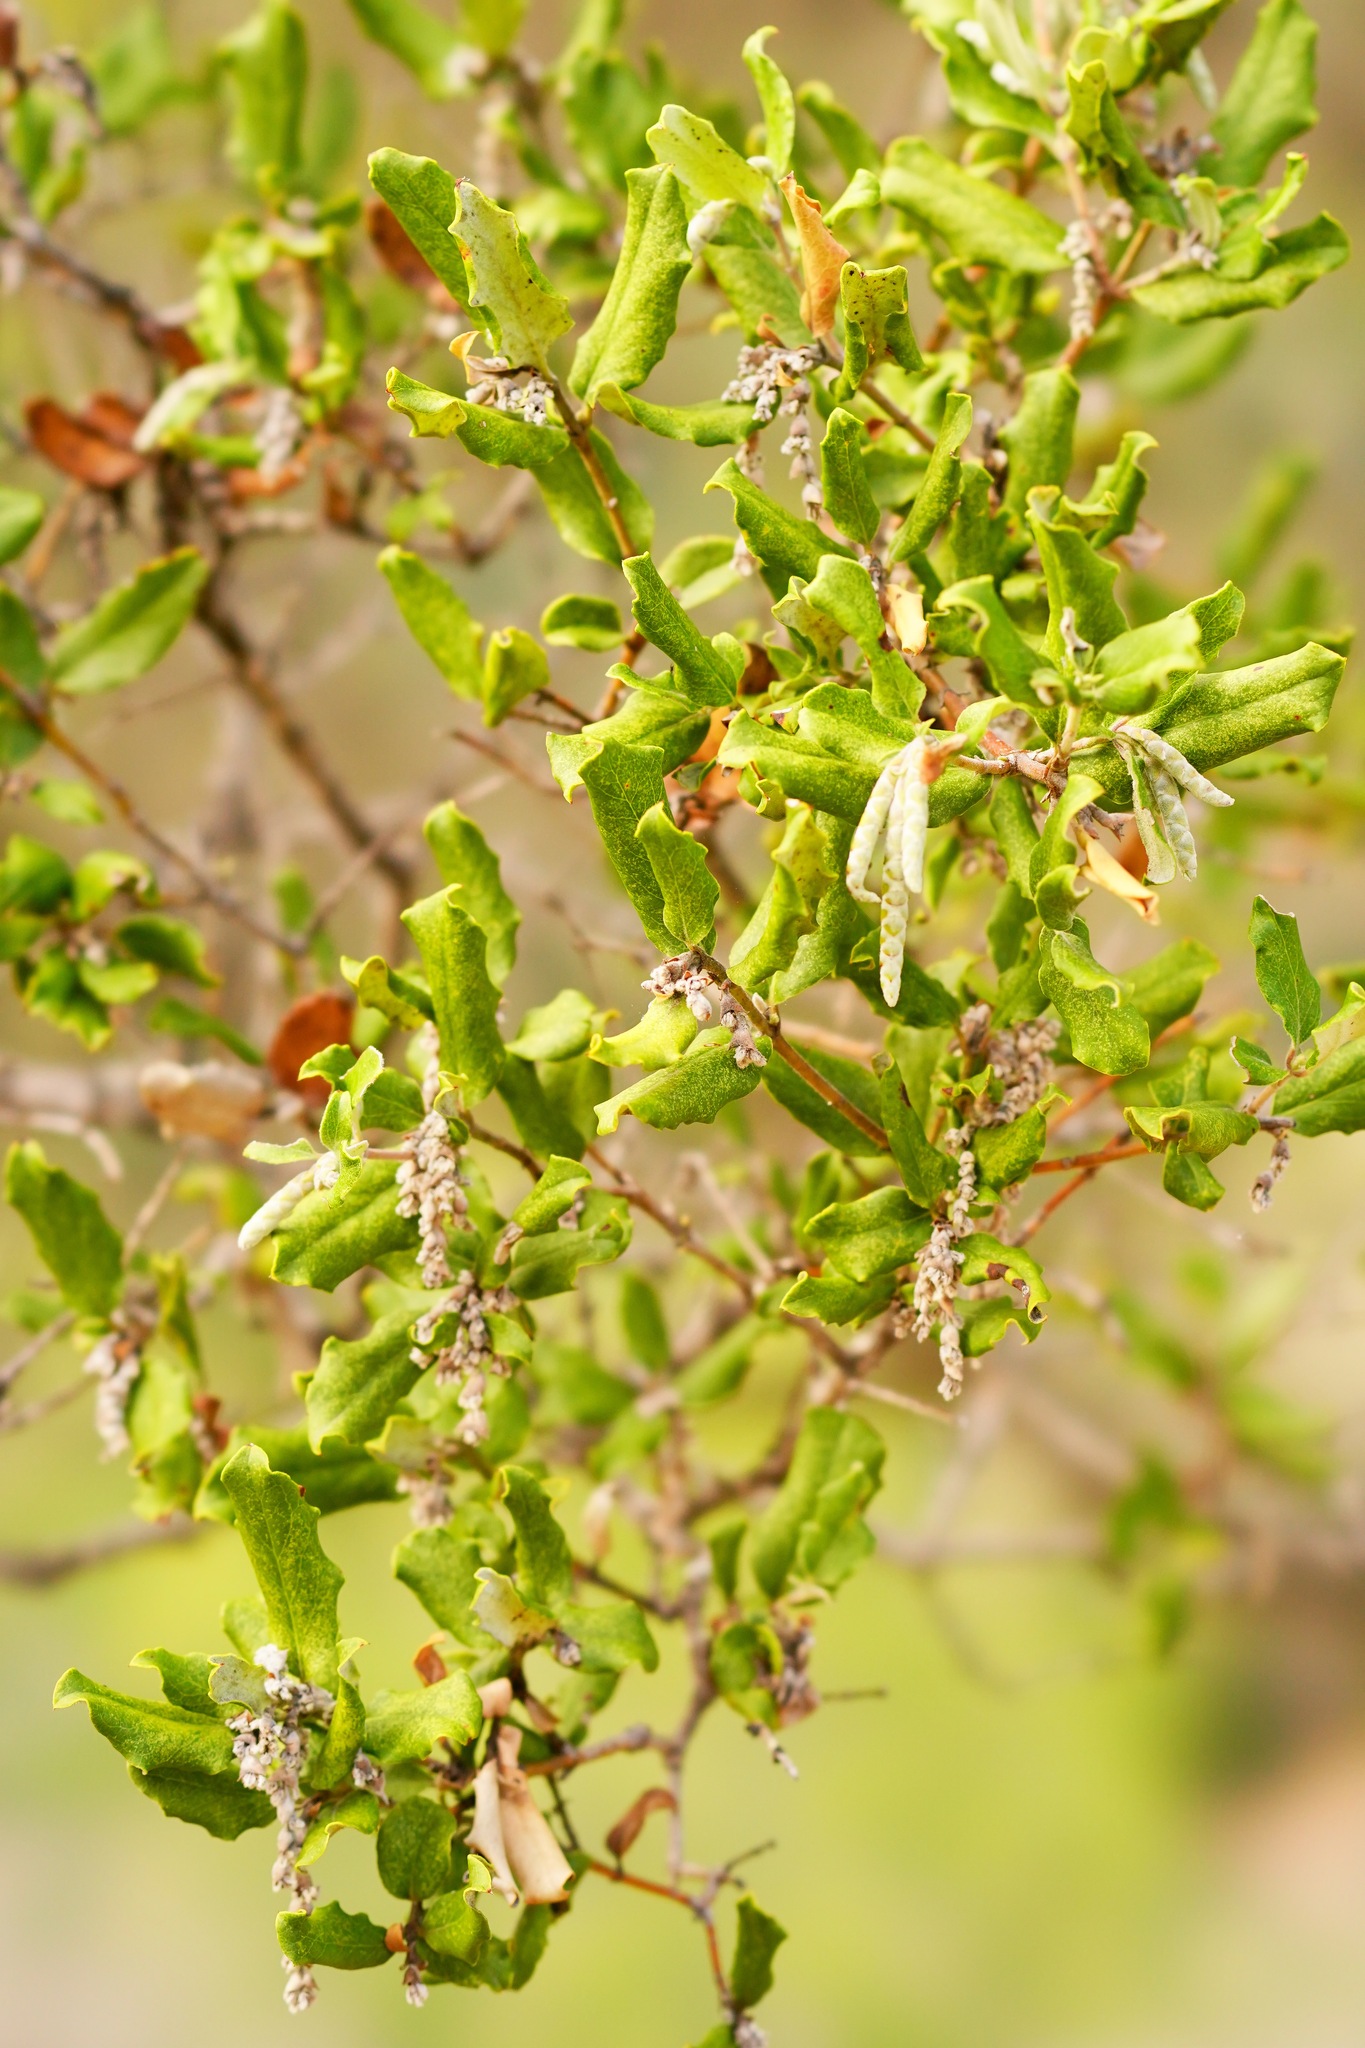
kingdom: Plantae
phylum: Tracheophyta
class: Magnoliopsida
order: Garryales
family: Garryaceae
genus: Garrya
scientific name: Garrya elliptica
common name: Silk-tassel
